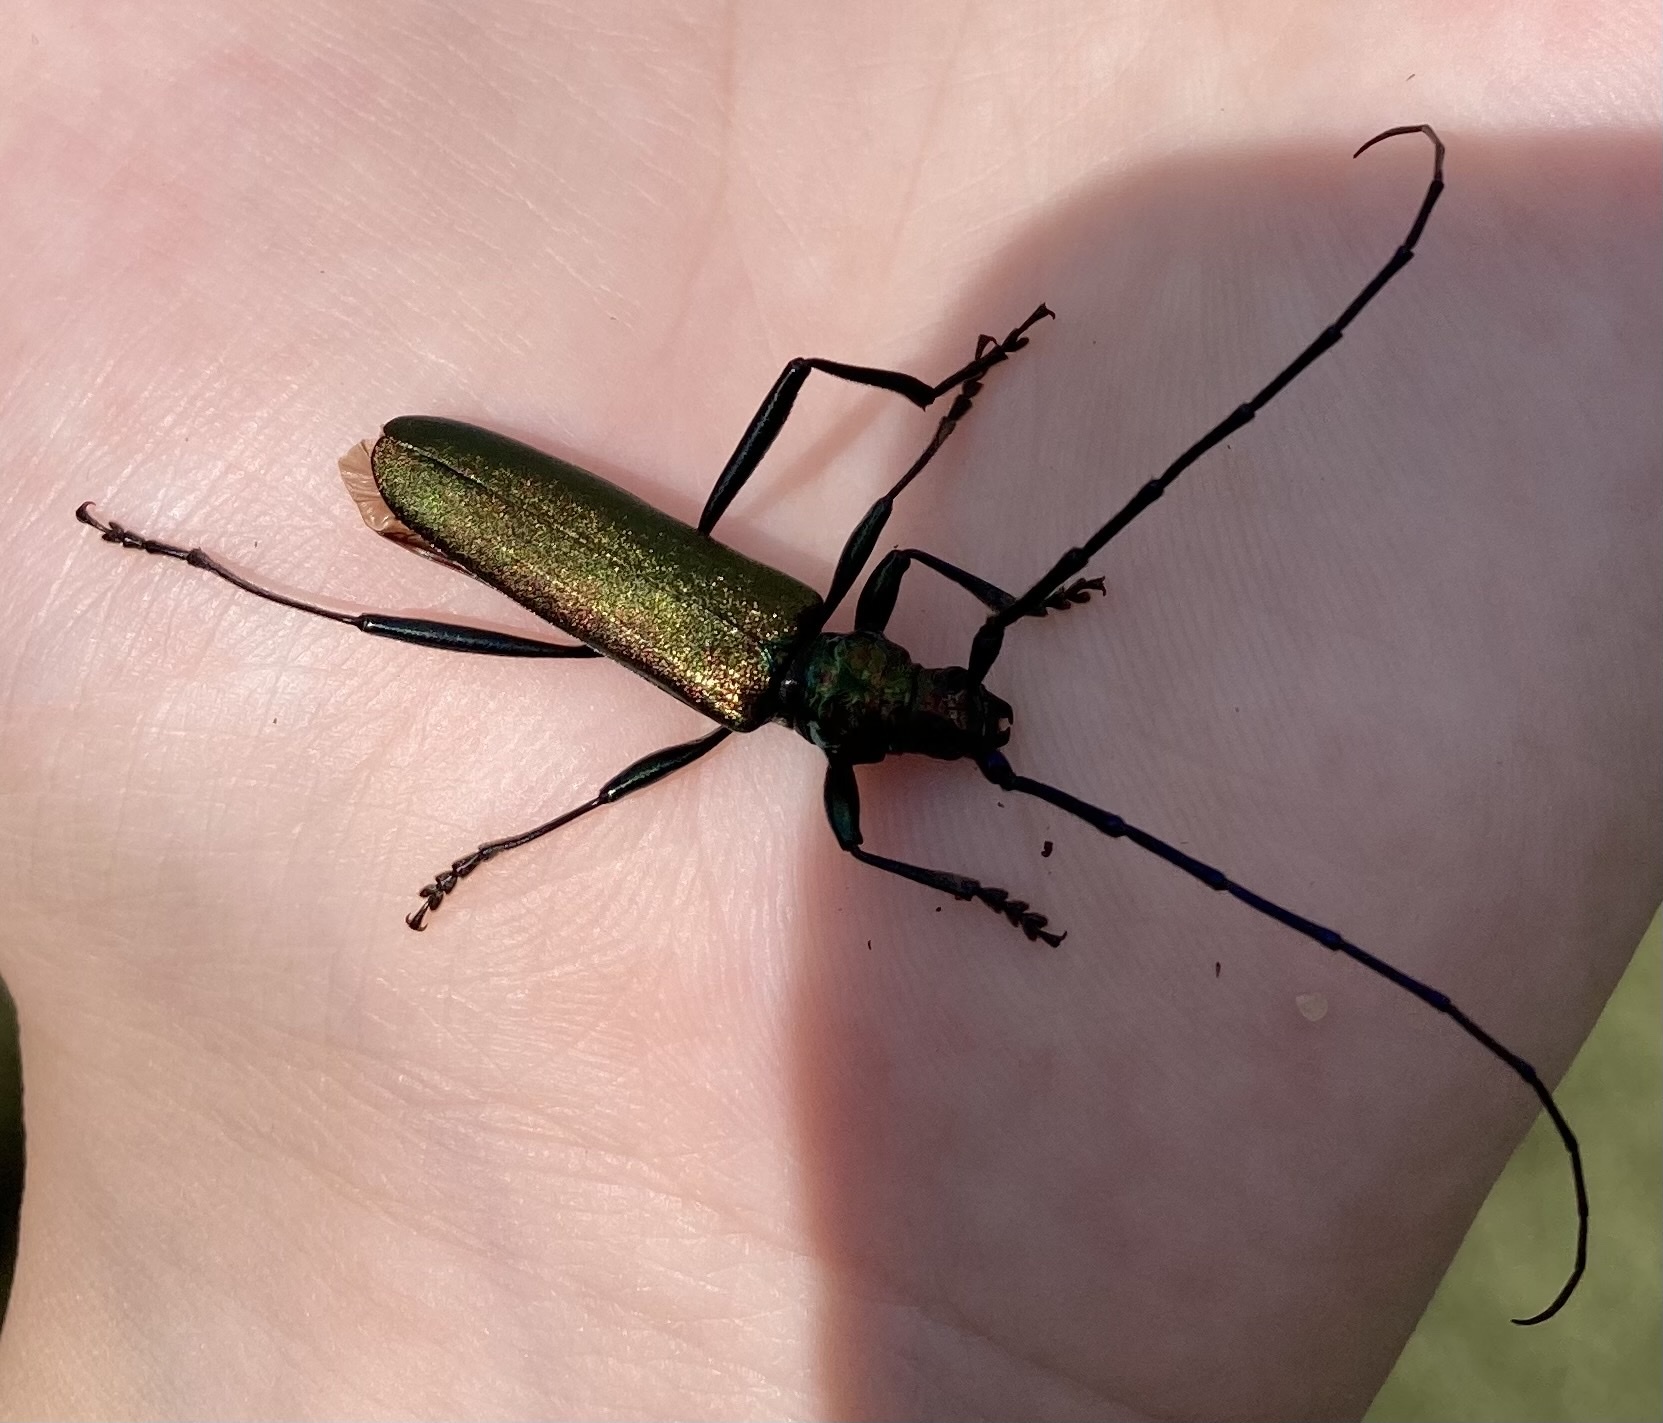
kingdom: Animalia
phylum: Arthropoda
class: Insecta
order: Coleoptera
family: Cerambycidae
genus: Aromia
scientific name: Aromia moschata
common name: Musk beetle
